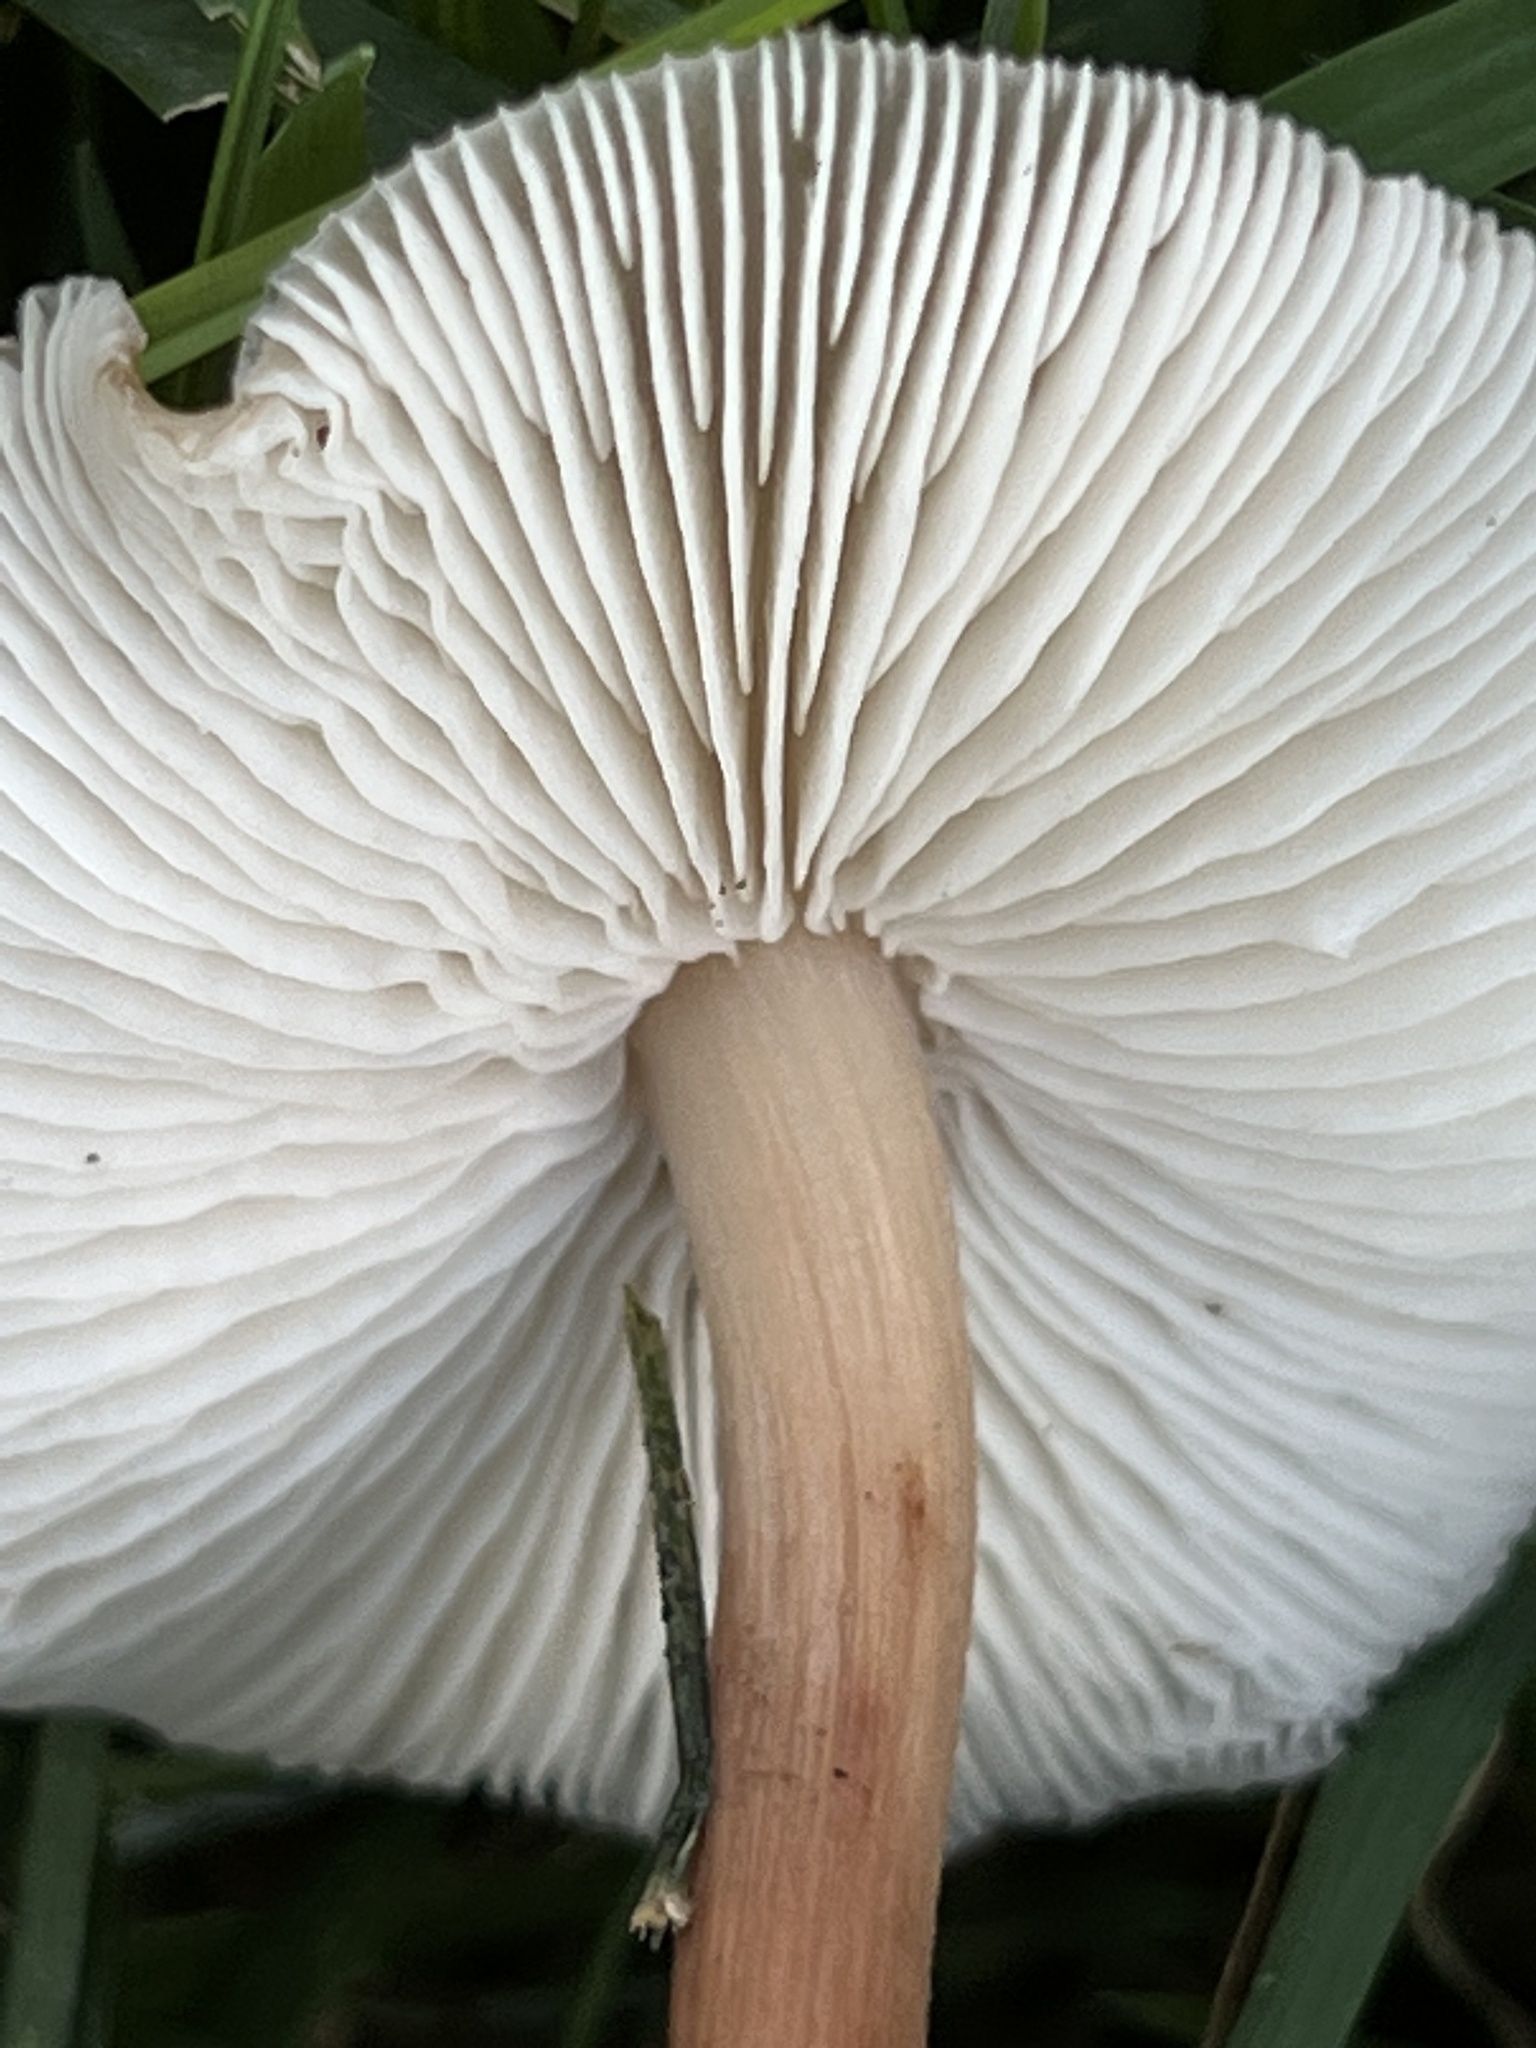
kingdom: Fungi
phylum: Basidiomycota
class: Agaricomycetes
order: Agaricales
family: Marasmiaceae
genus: Marasmius
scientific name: Marasmius oreades
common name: Fairy ring champignon
